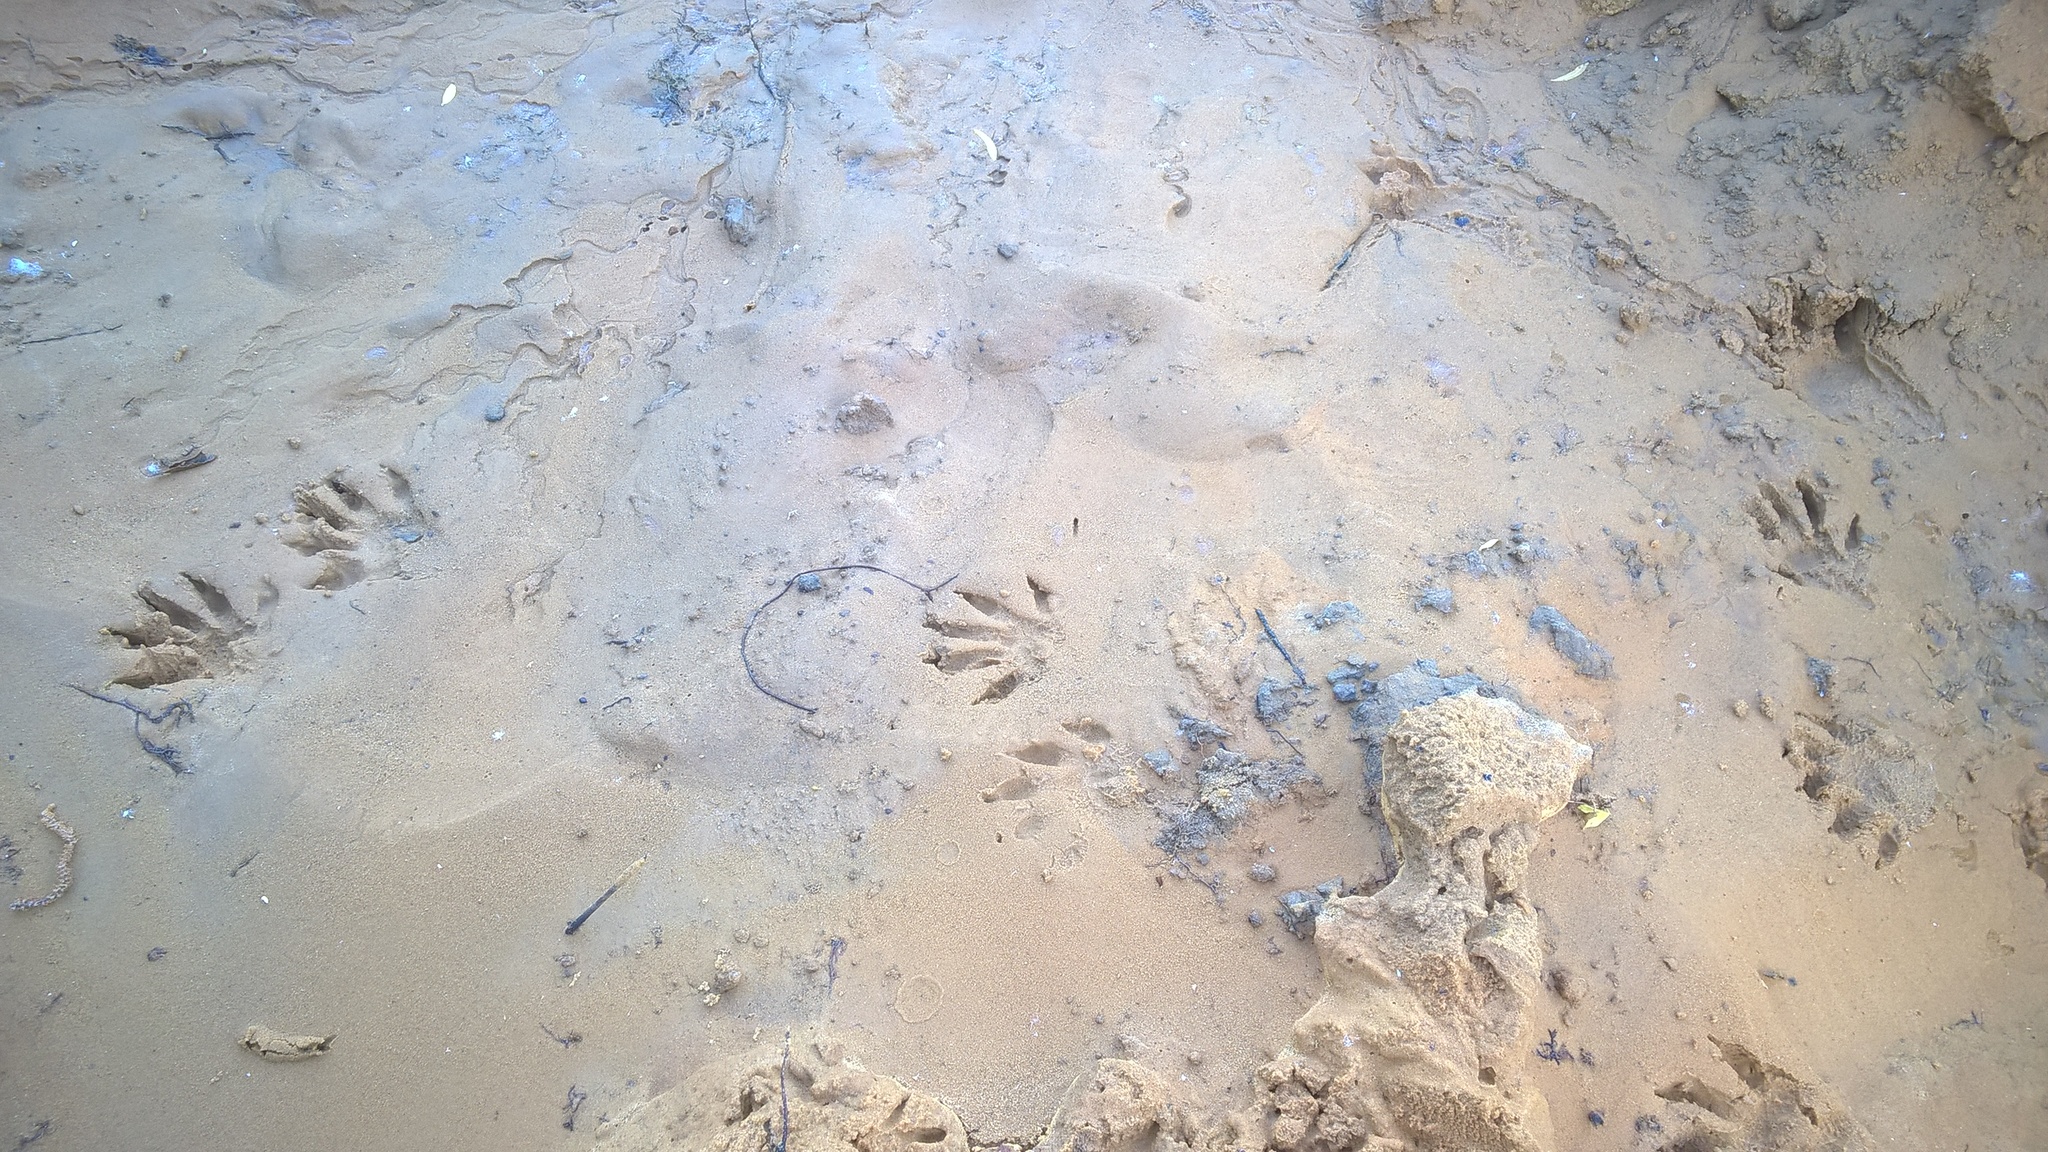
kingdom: Animalia
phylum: Chordata
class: Mammalia
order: Carnivora
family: Procyonidae
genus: Procyon
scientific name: Procyon lotor
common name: Raccoon
